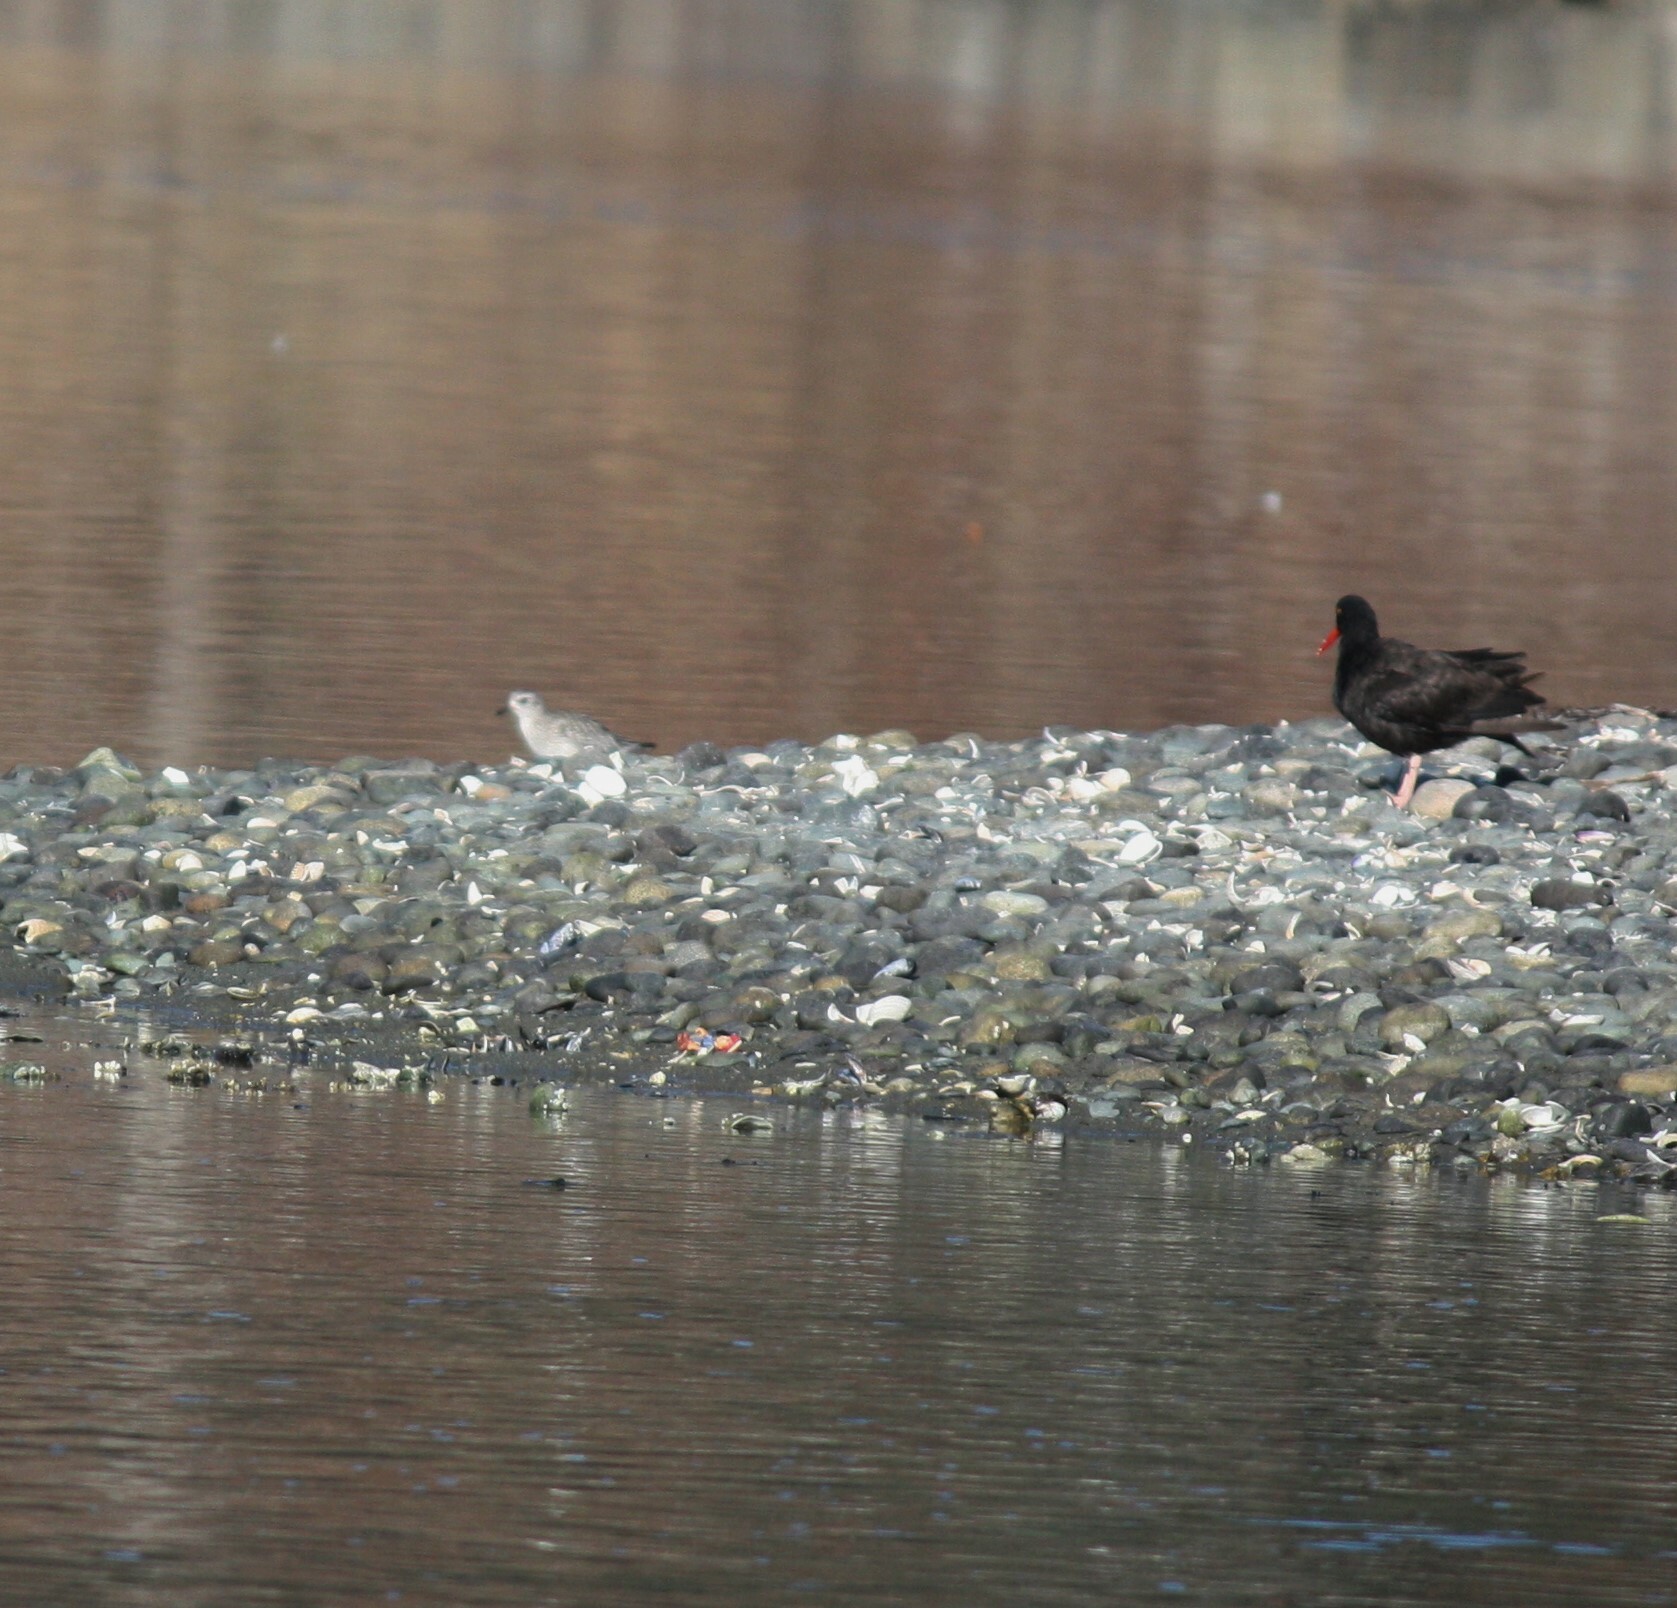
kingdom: Animalia
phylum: Chordata
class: Aves
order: Charadriiformes
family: Charadriidae
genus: Pluvialis
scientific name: Pluvialis squatarola
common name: Grey plover
